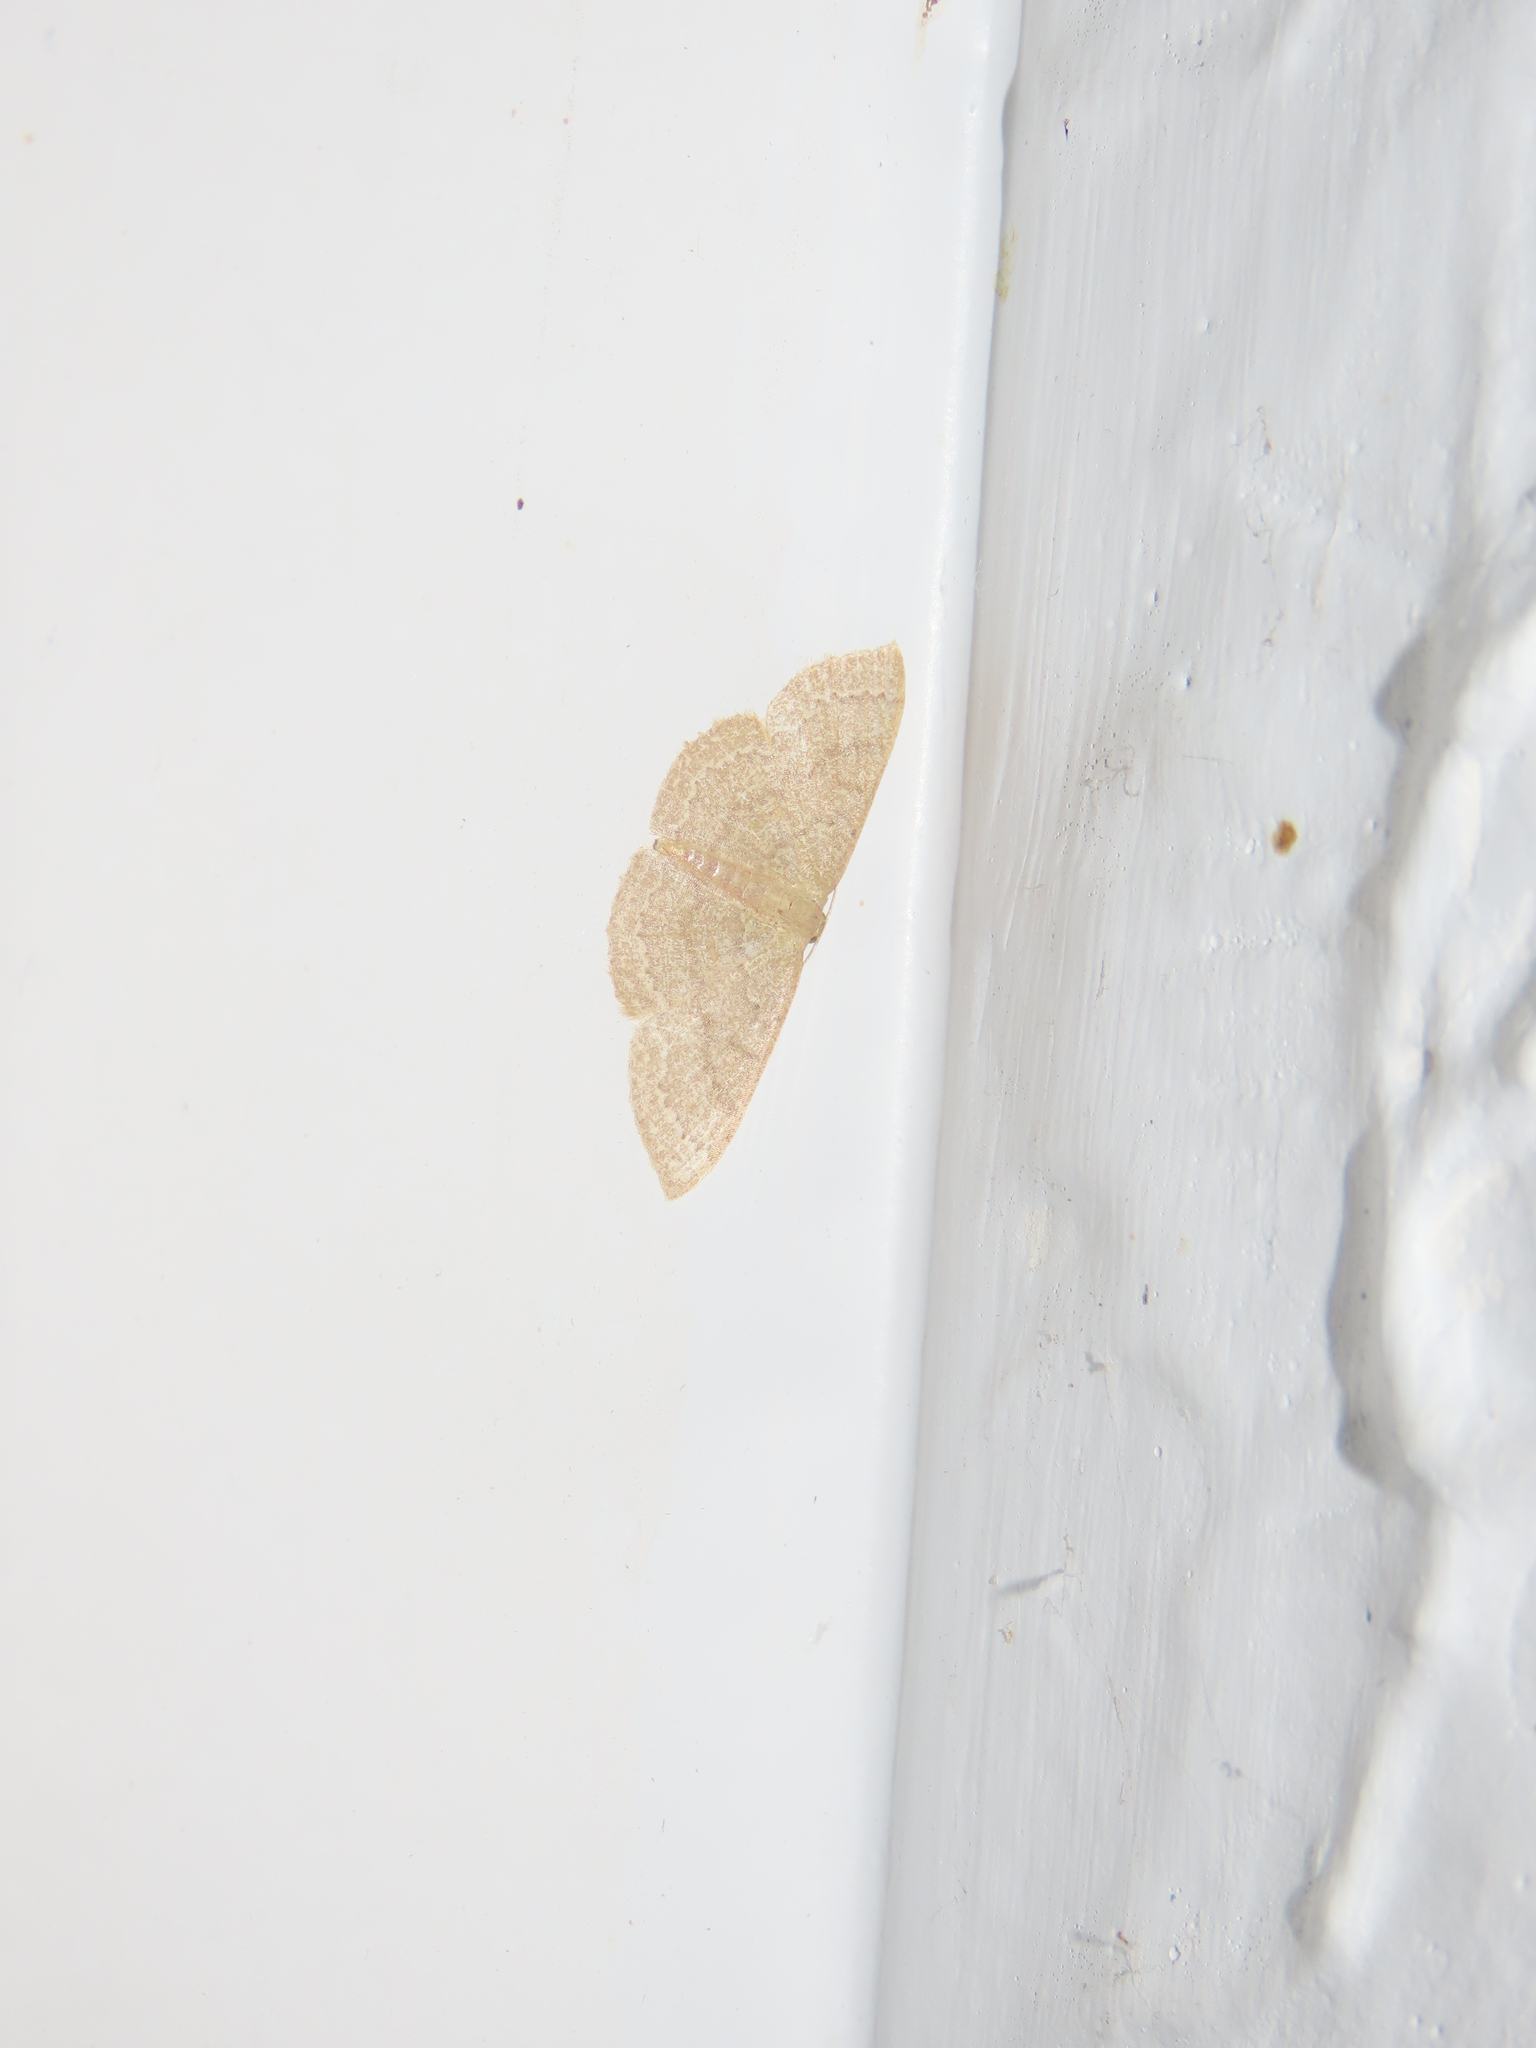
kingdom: Animalia
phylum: Arthropoda
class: Insecta
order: Lepidoptera
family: Geometridae
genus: Pleuroprucha
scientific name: Pleuroprucha insulsaria
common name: Common tan wave
